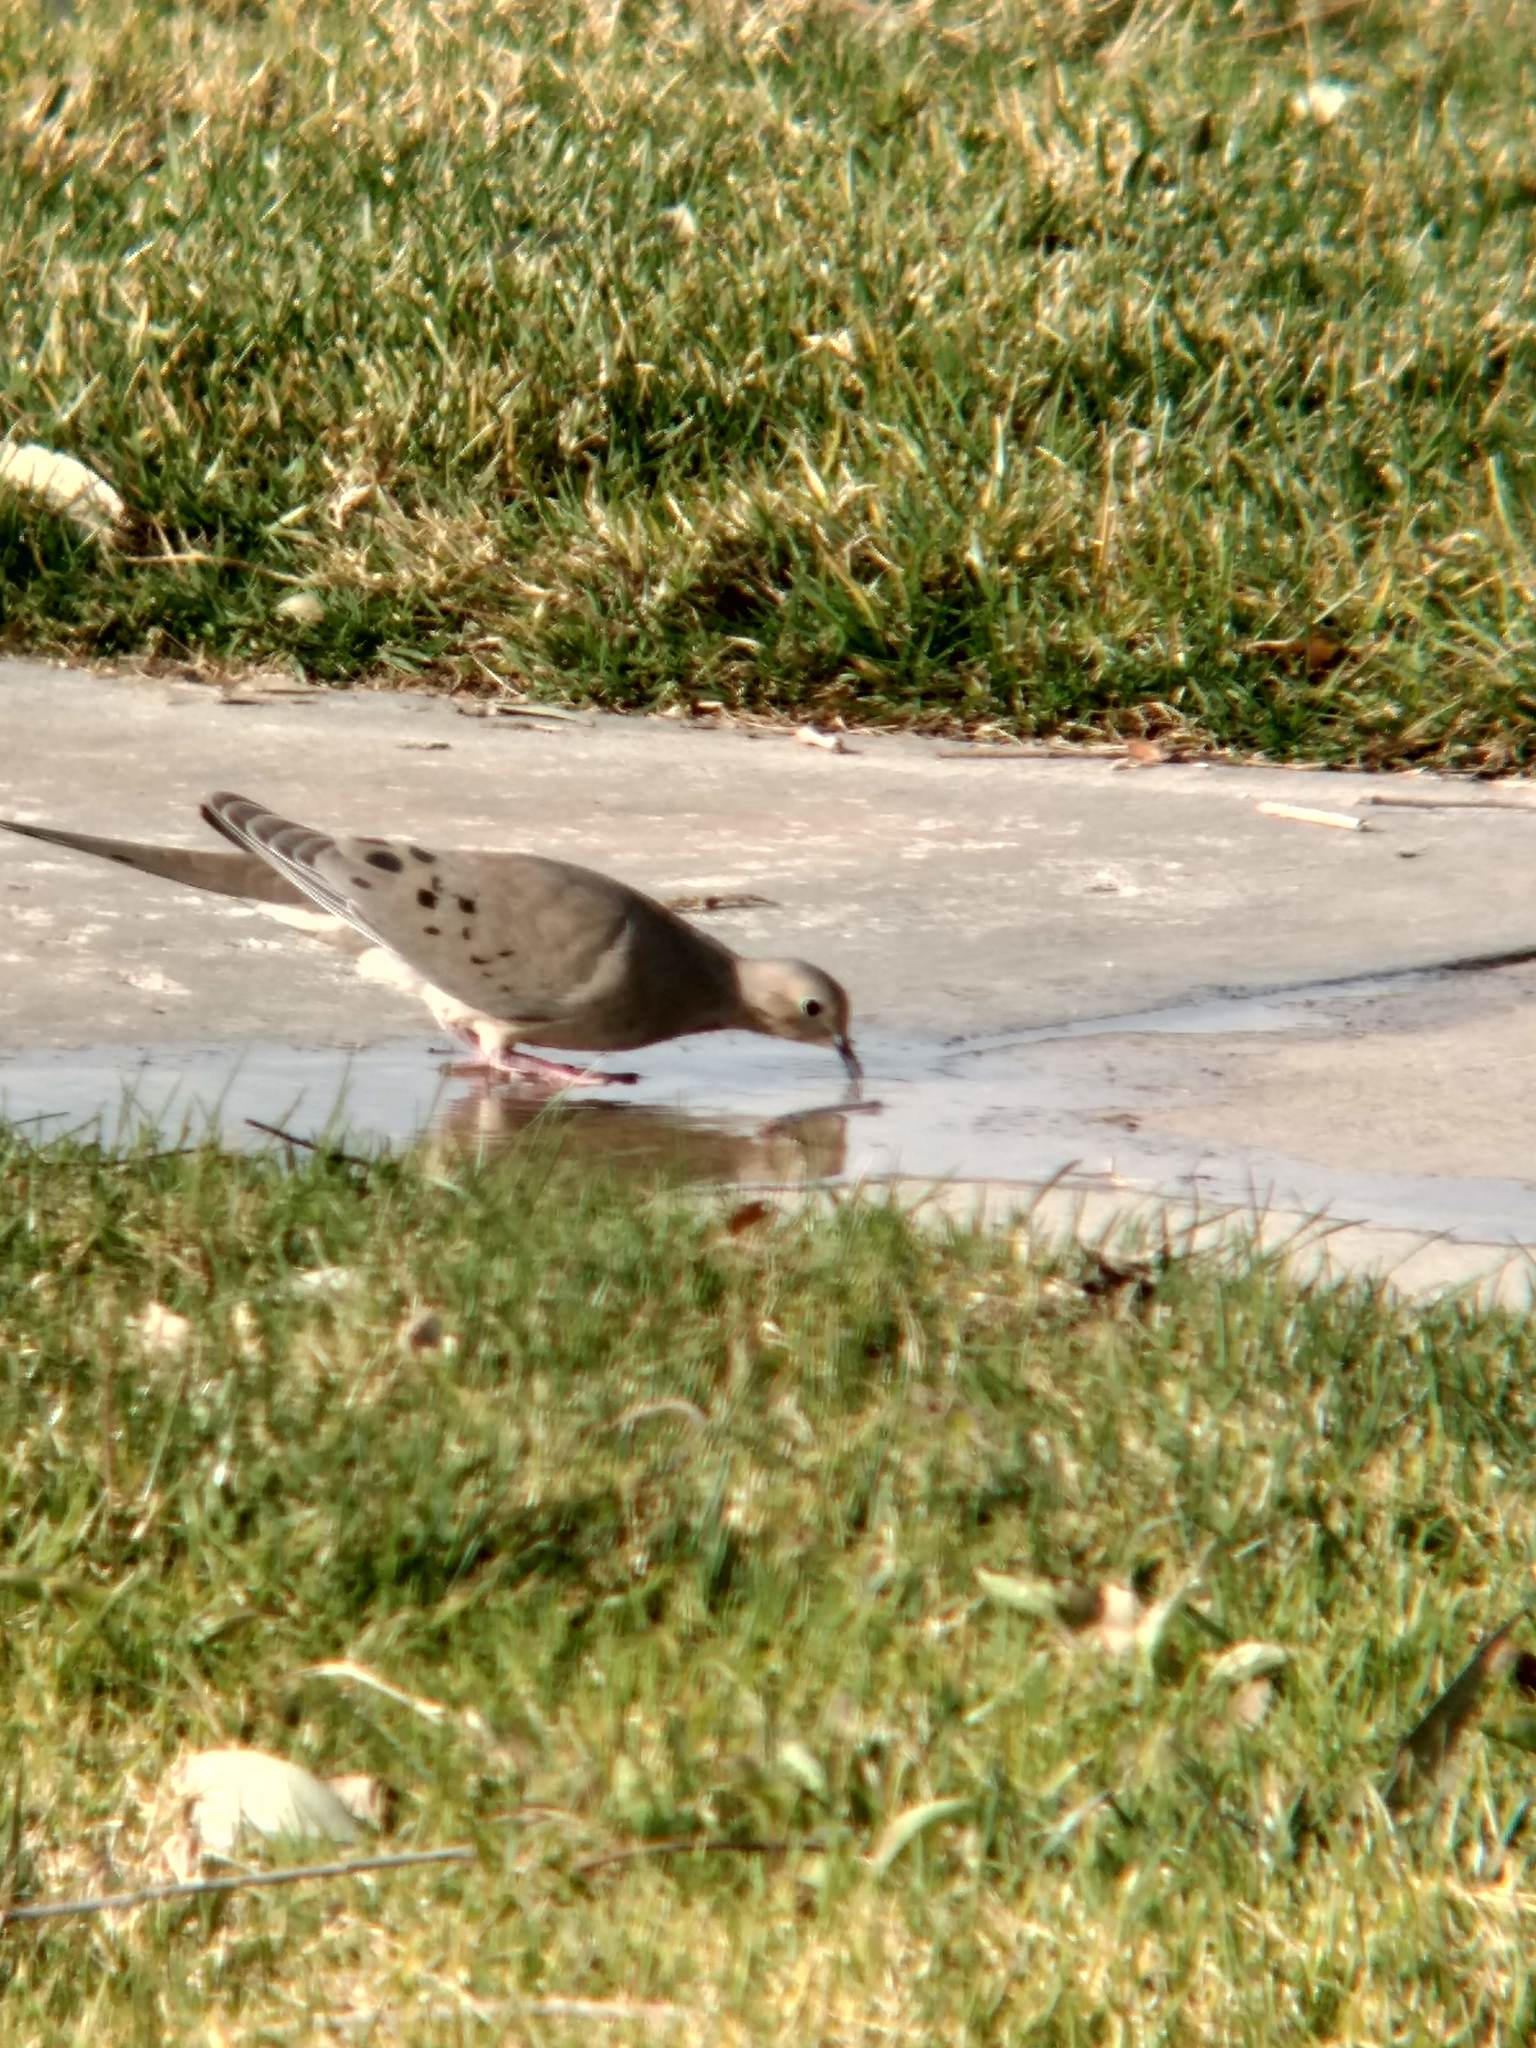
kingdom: Animalia
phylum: Chordata
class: Aves
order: Columbiformes
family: Columbidae
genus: Zenaida
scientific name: Zenaida macroura
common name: Mourning dove
